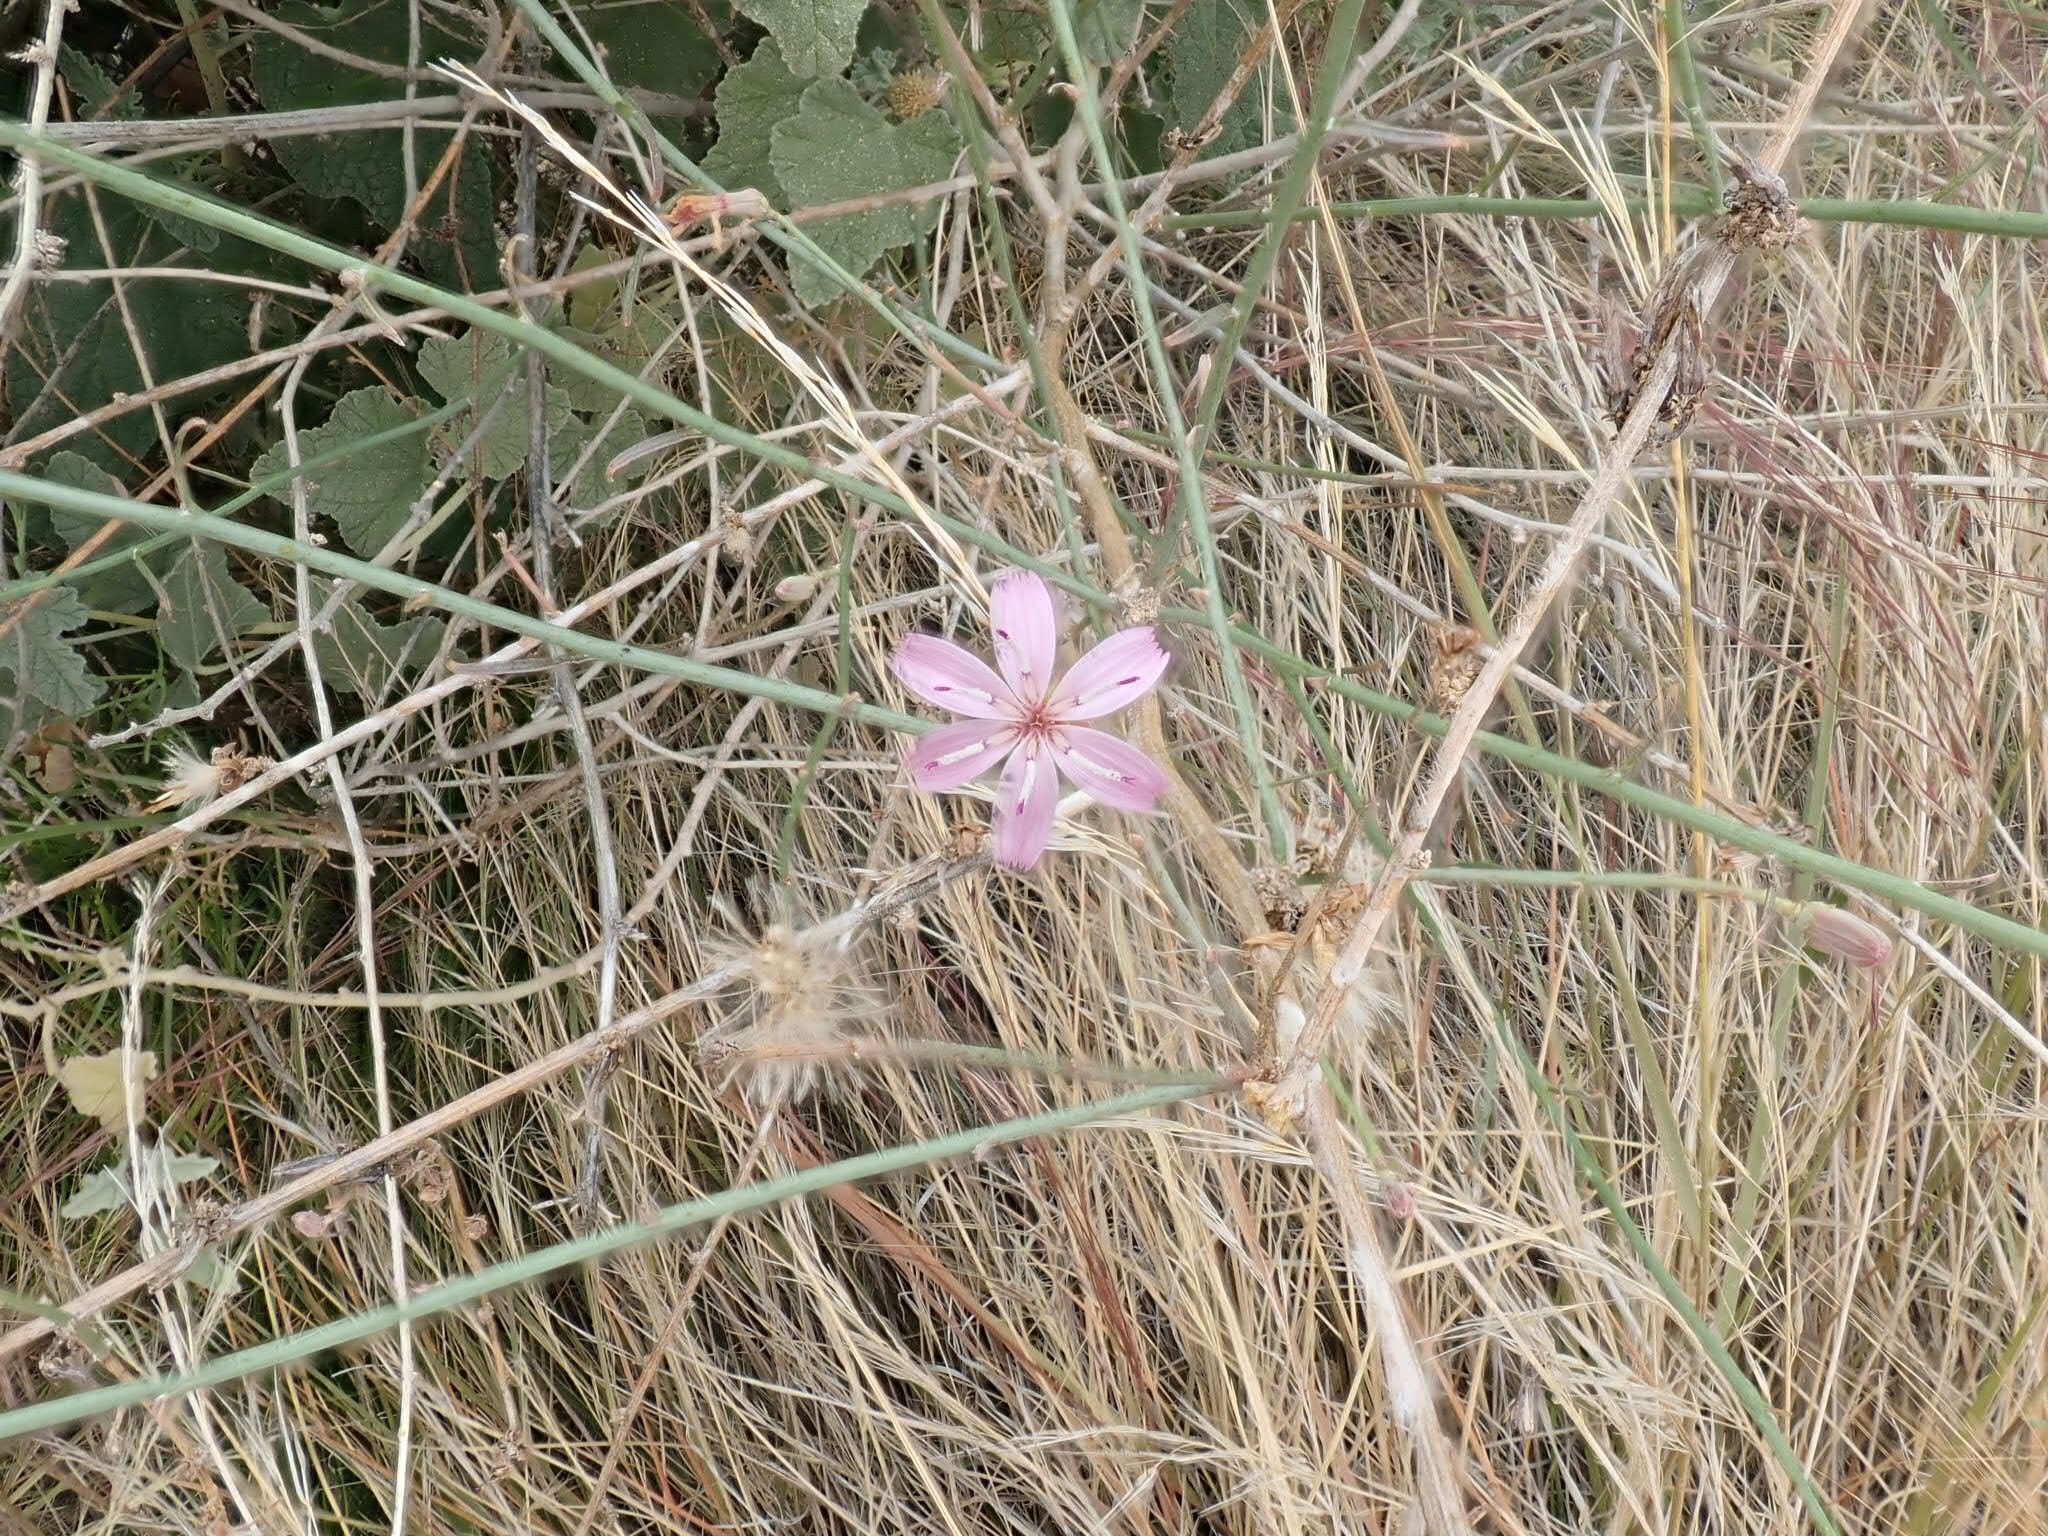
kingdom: Plantae
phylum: Tracheophyta
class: Magnoliopsida
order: Asterales
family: Asteraceae
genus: Stephanomeria
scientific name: Stephanomeria pauciflora
